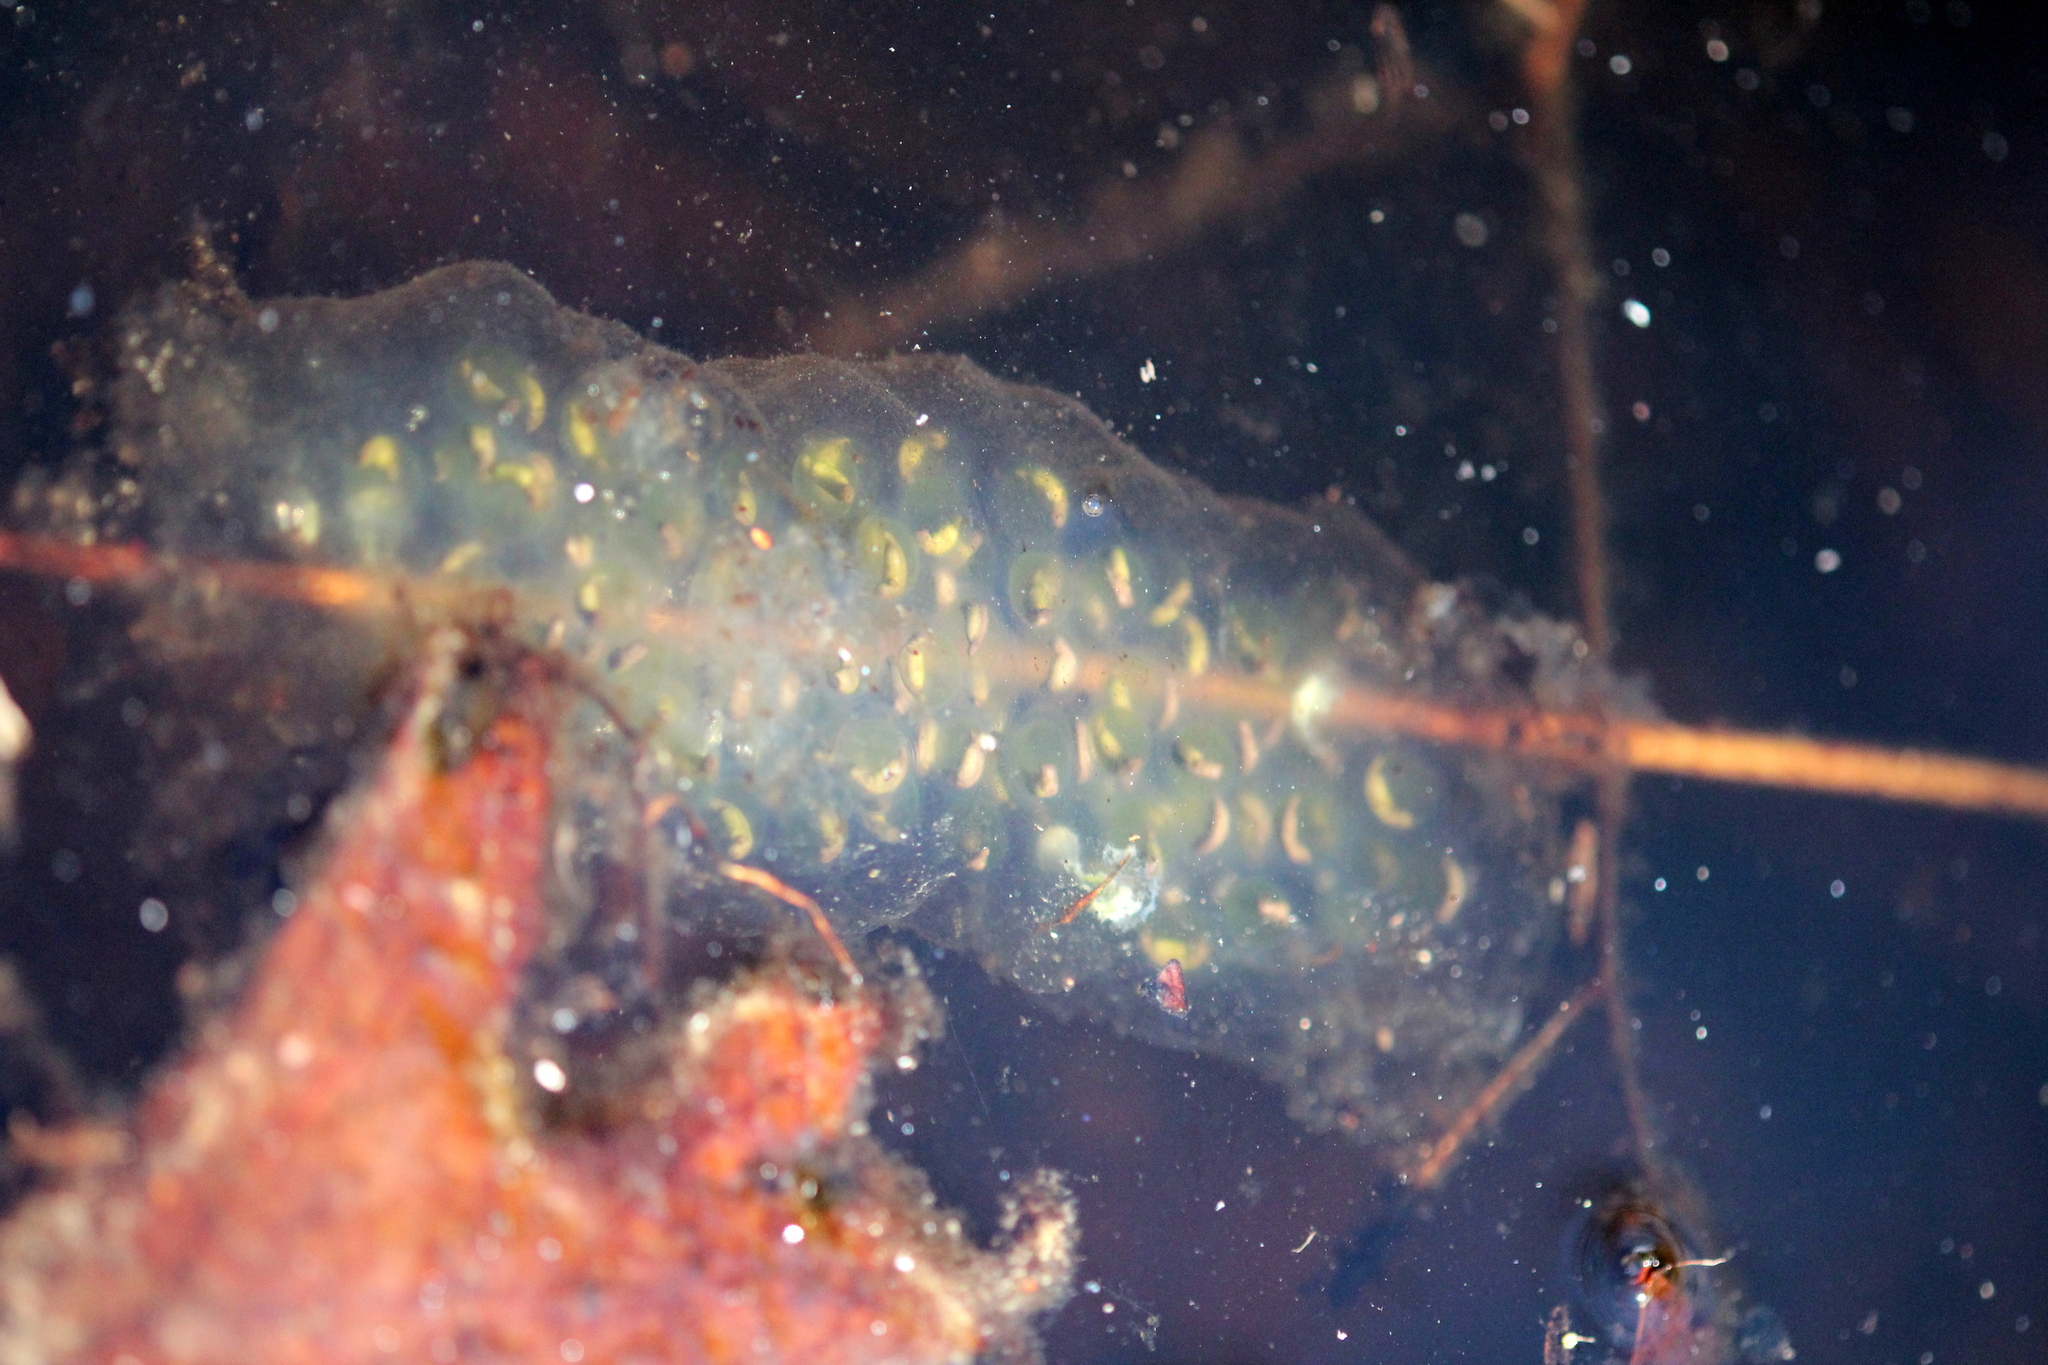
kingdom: Animalia
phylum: Chordata
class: Amphibia
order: Caudata
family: Ambystomatidae
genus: Ambystoma
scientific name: Ambystoma maculatum
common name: Spotted salamander
